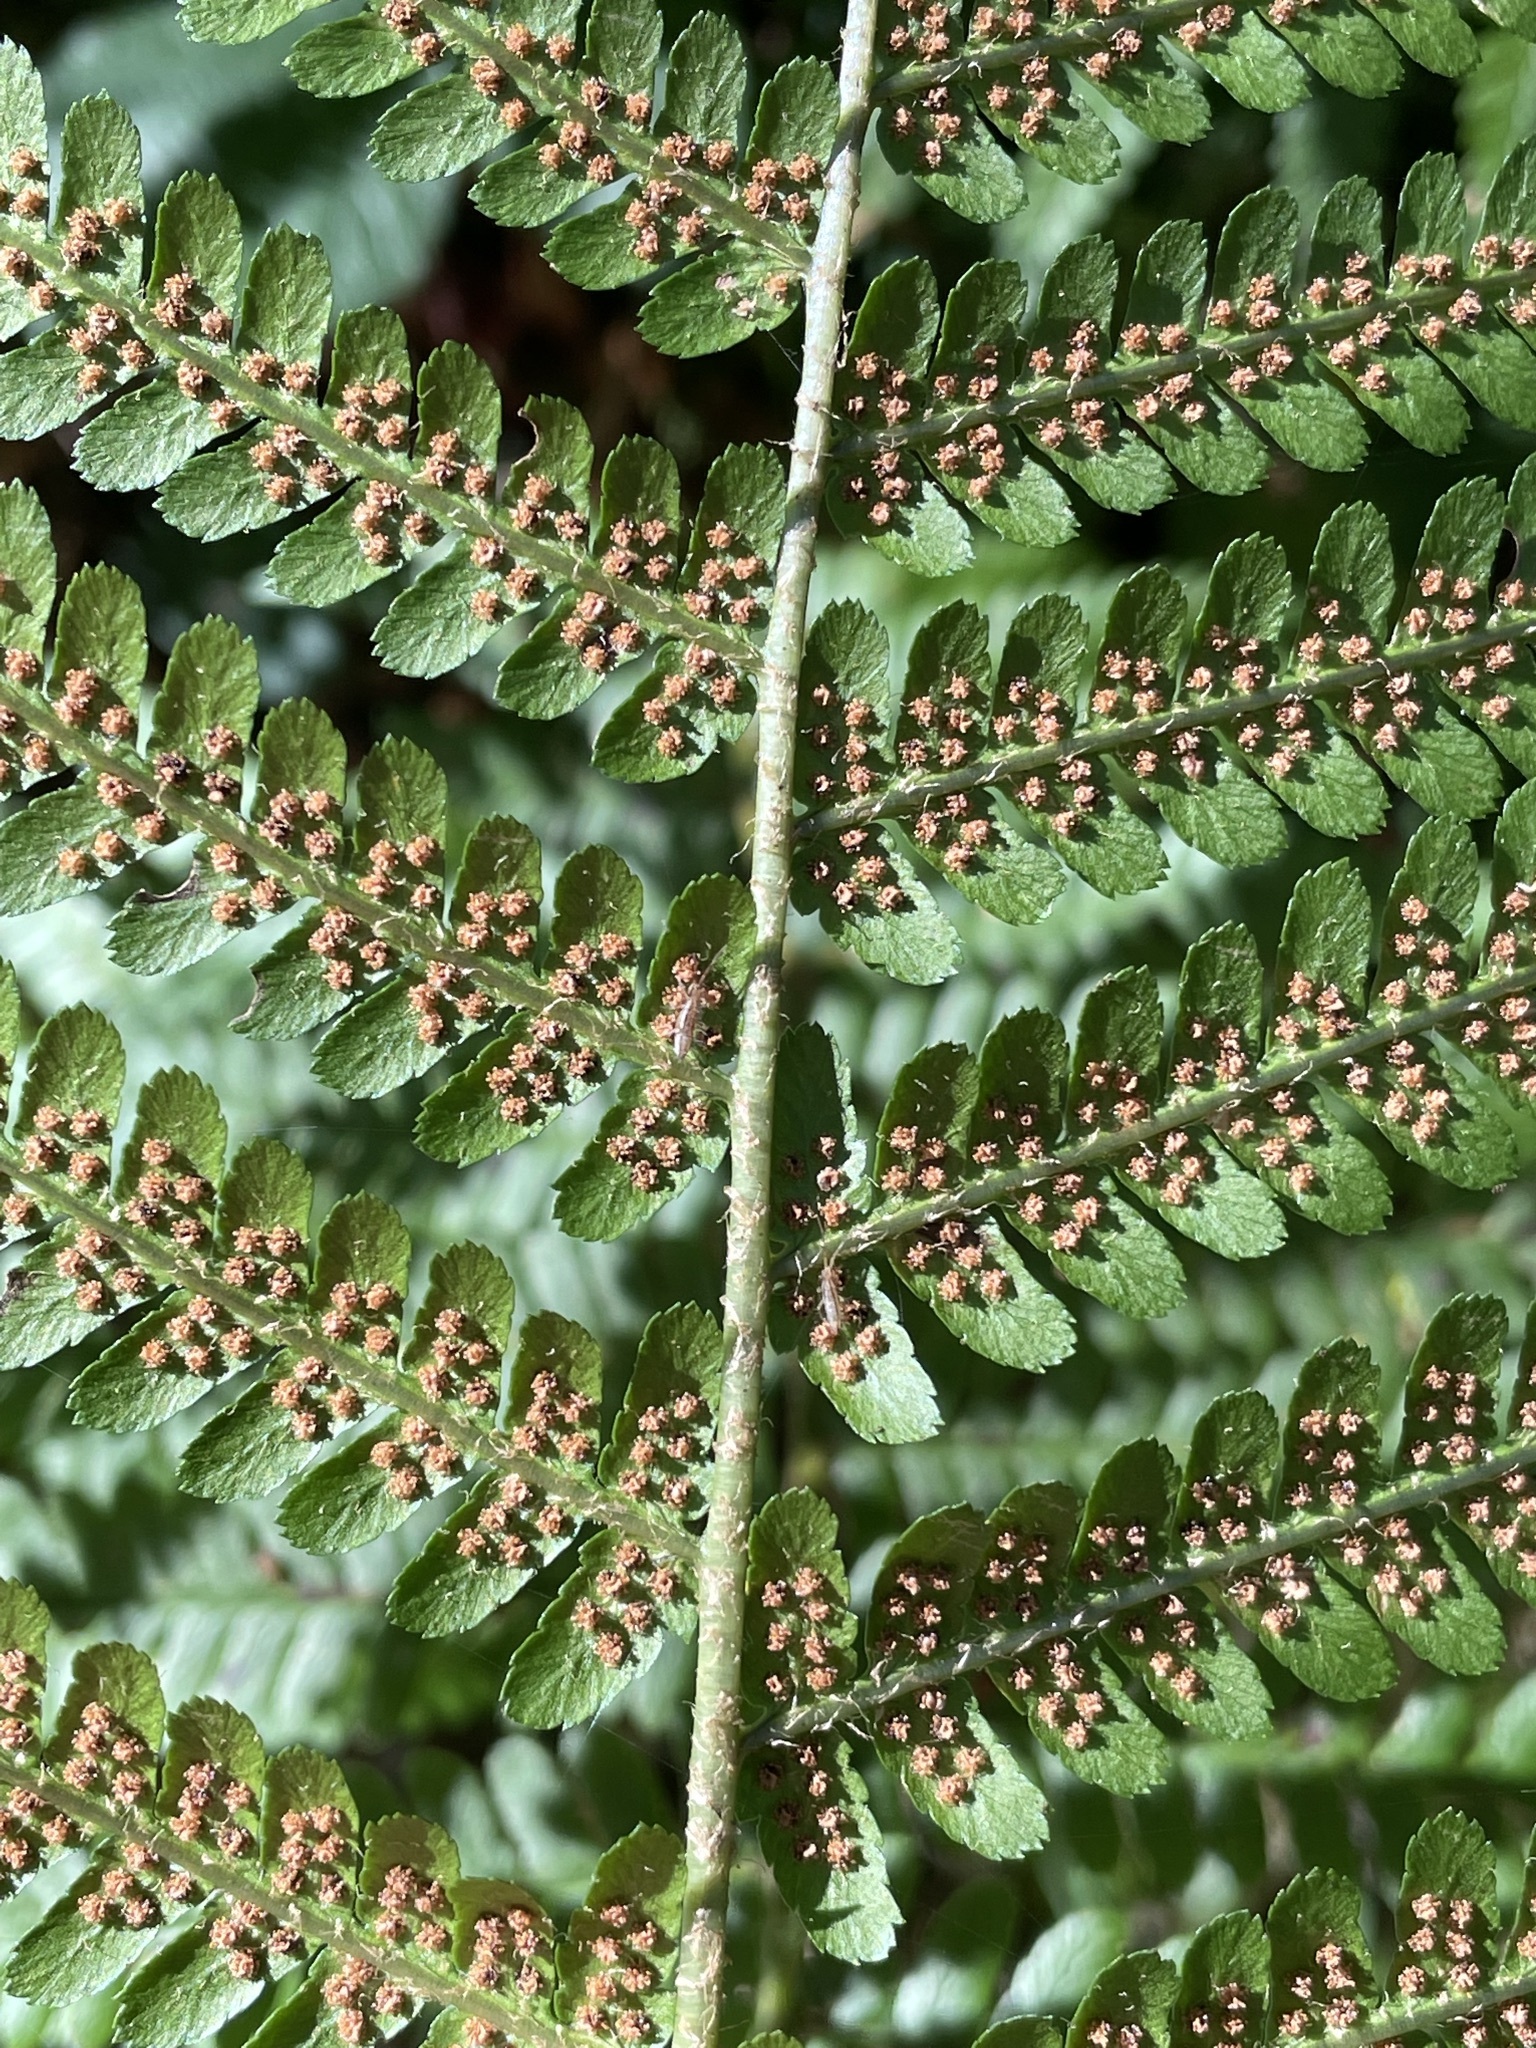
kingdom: Plantae
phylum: Tracheophyta
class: Polypodiopsida
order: Polypodiales
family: Dryopteridaceae
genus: Dryopteris
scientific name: Dryopteris filix-mas
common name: Male fern
